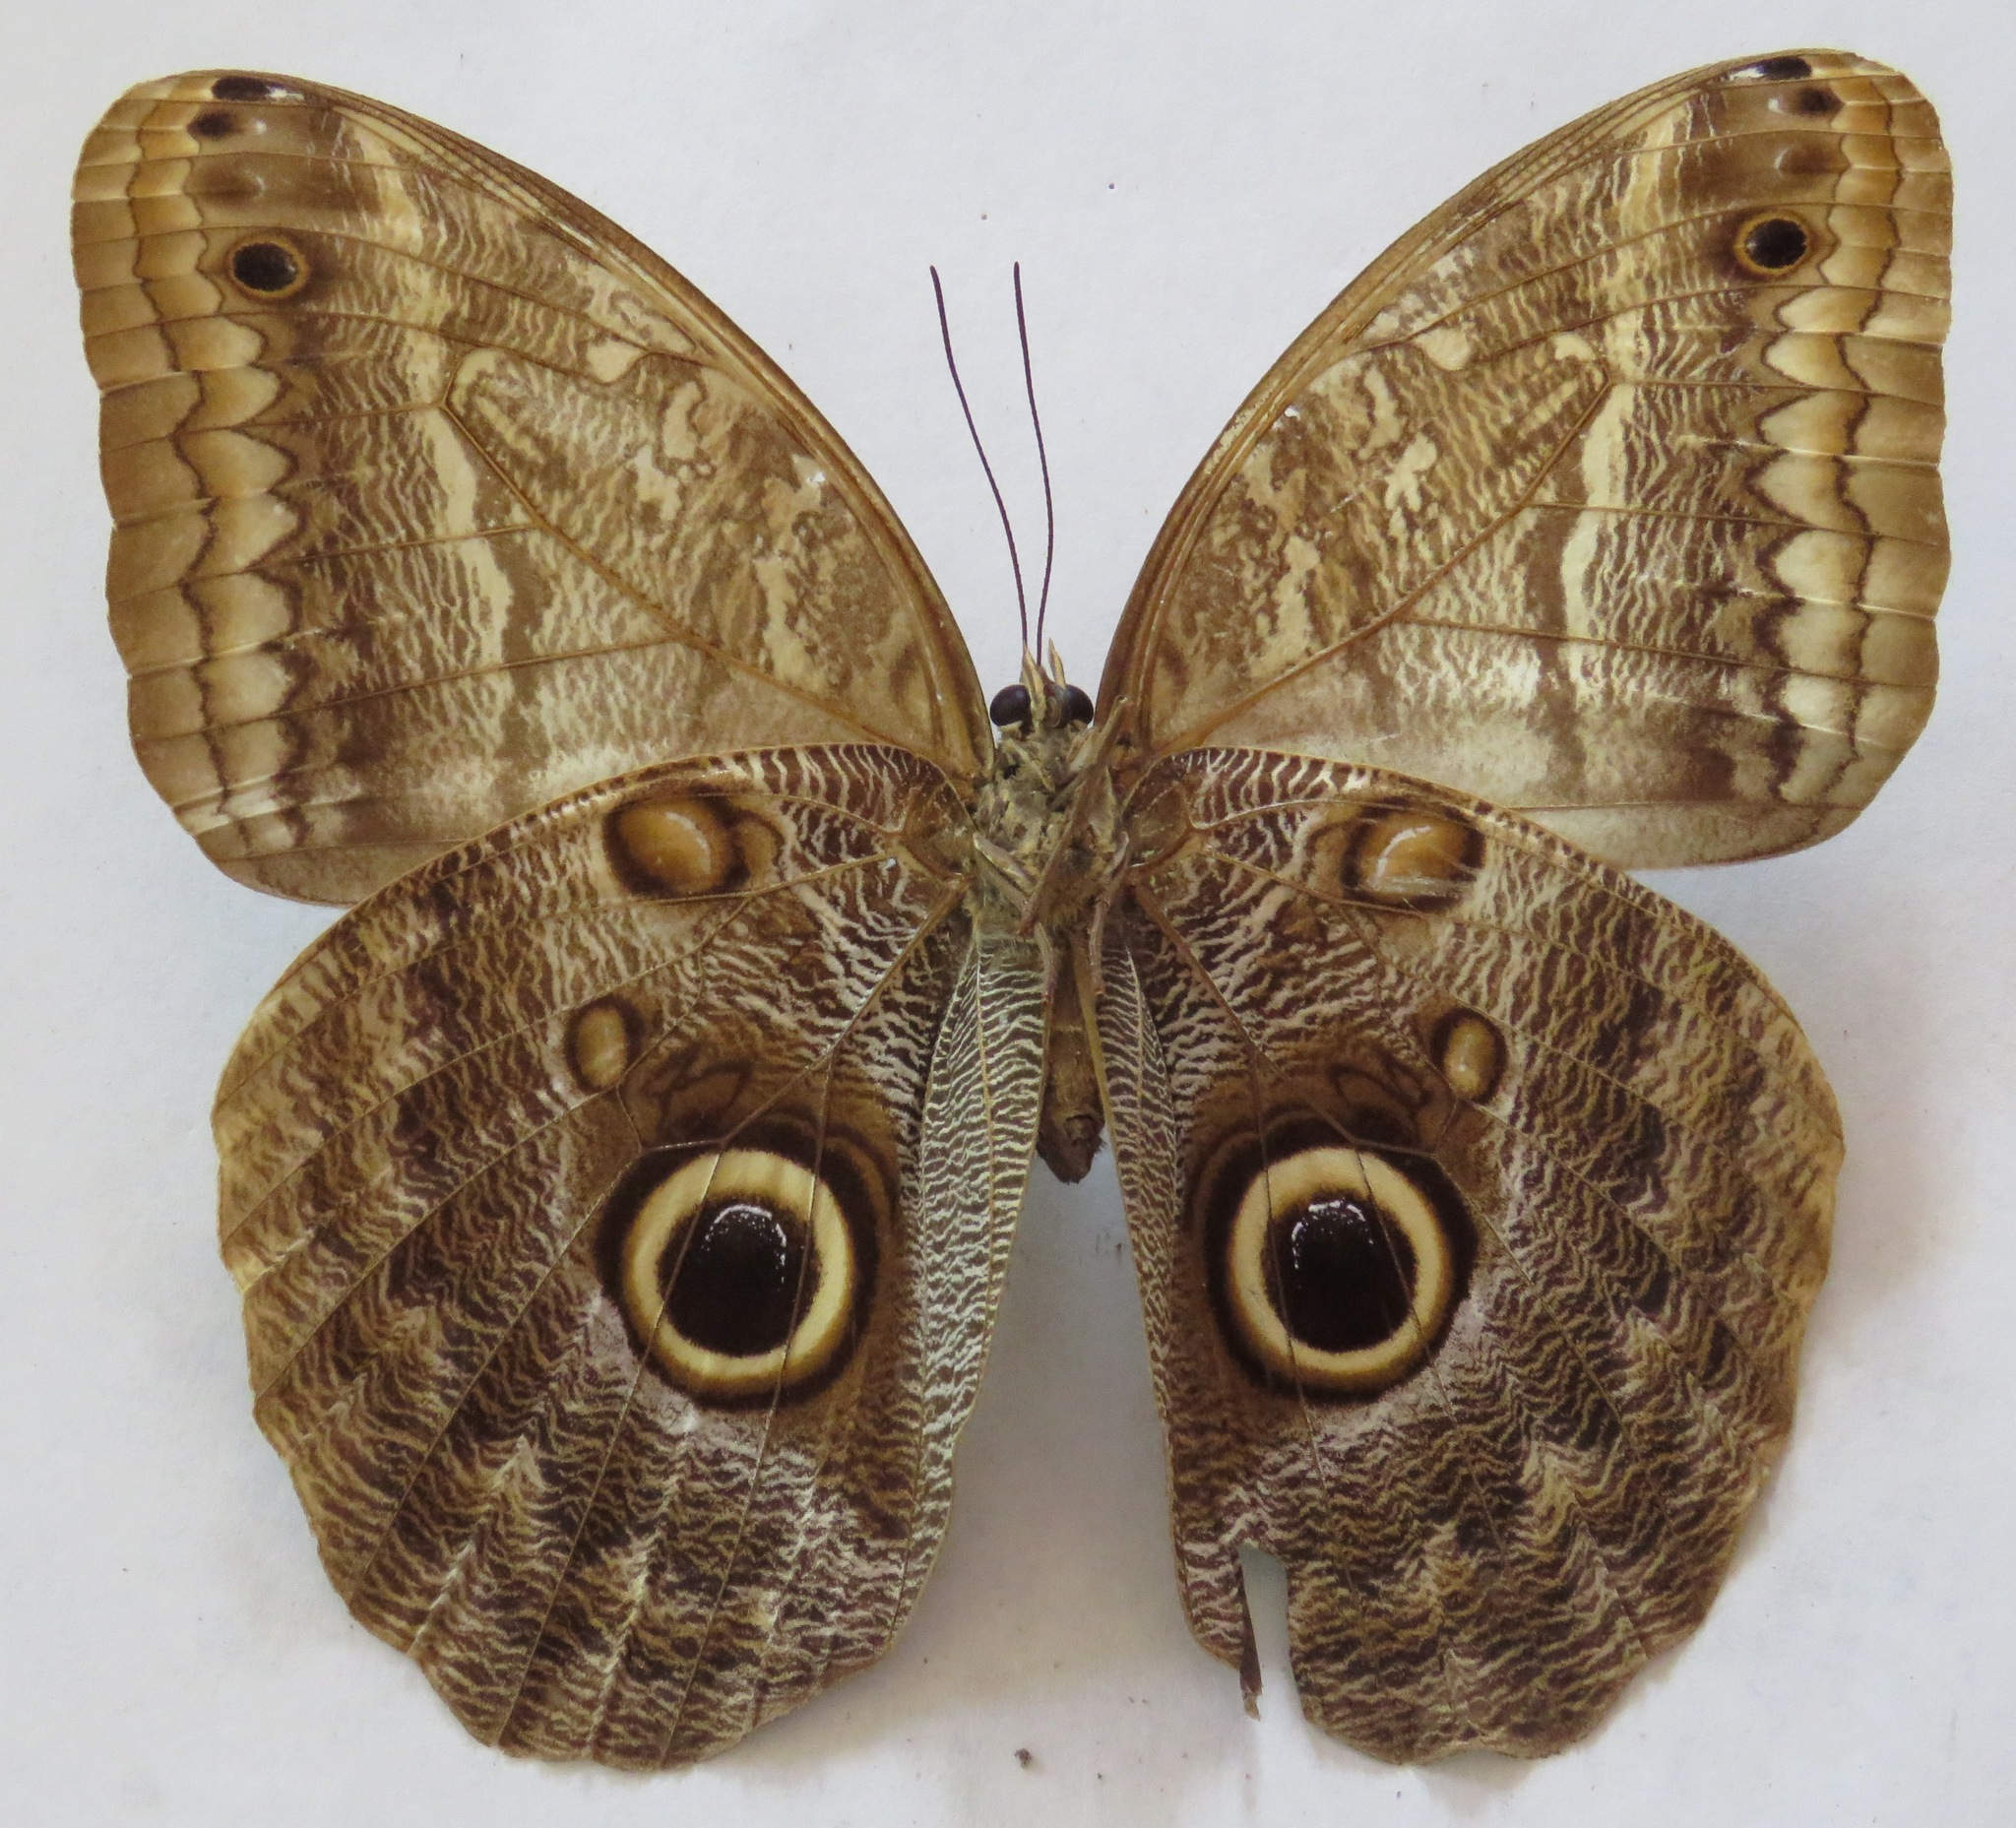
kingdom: Animalia
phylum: Arthropoda
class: Insecta
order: Lepidoptera
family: Nymphalidae
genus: Caligo
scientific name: Caligo telamonius
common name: Pale owl-butterfly
